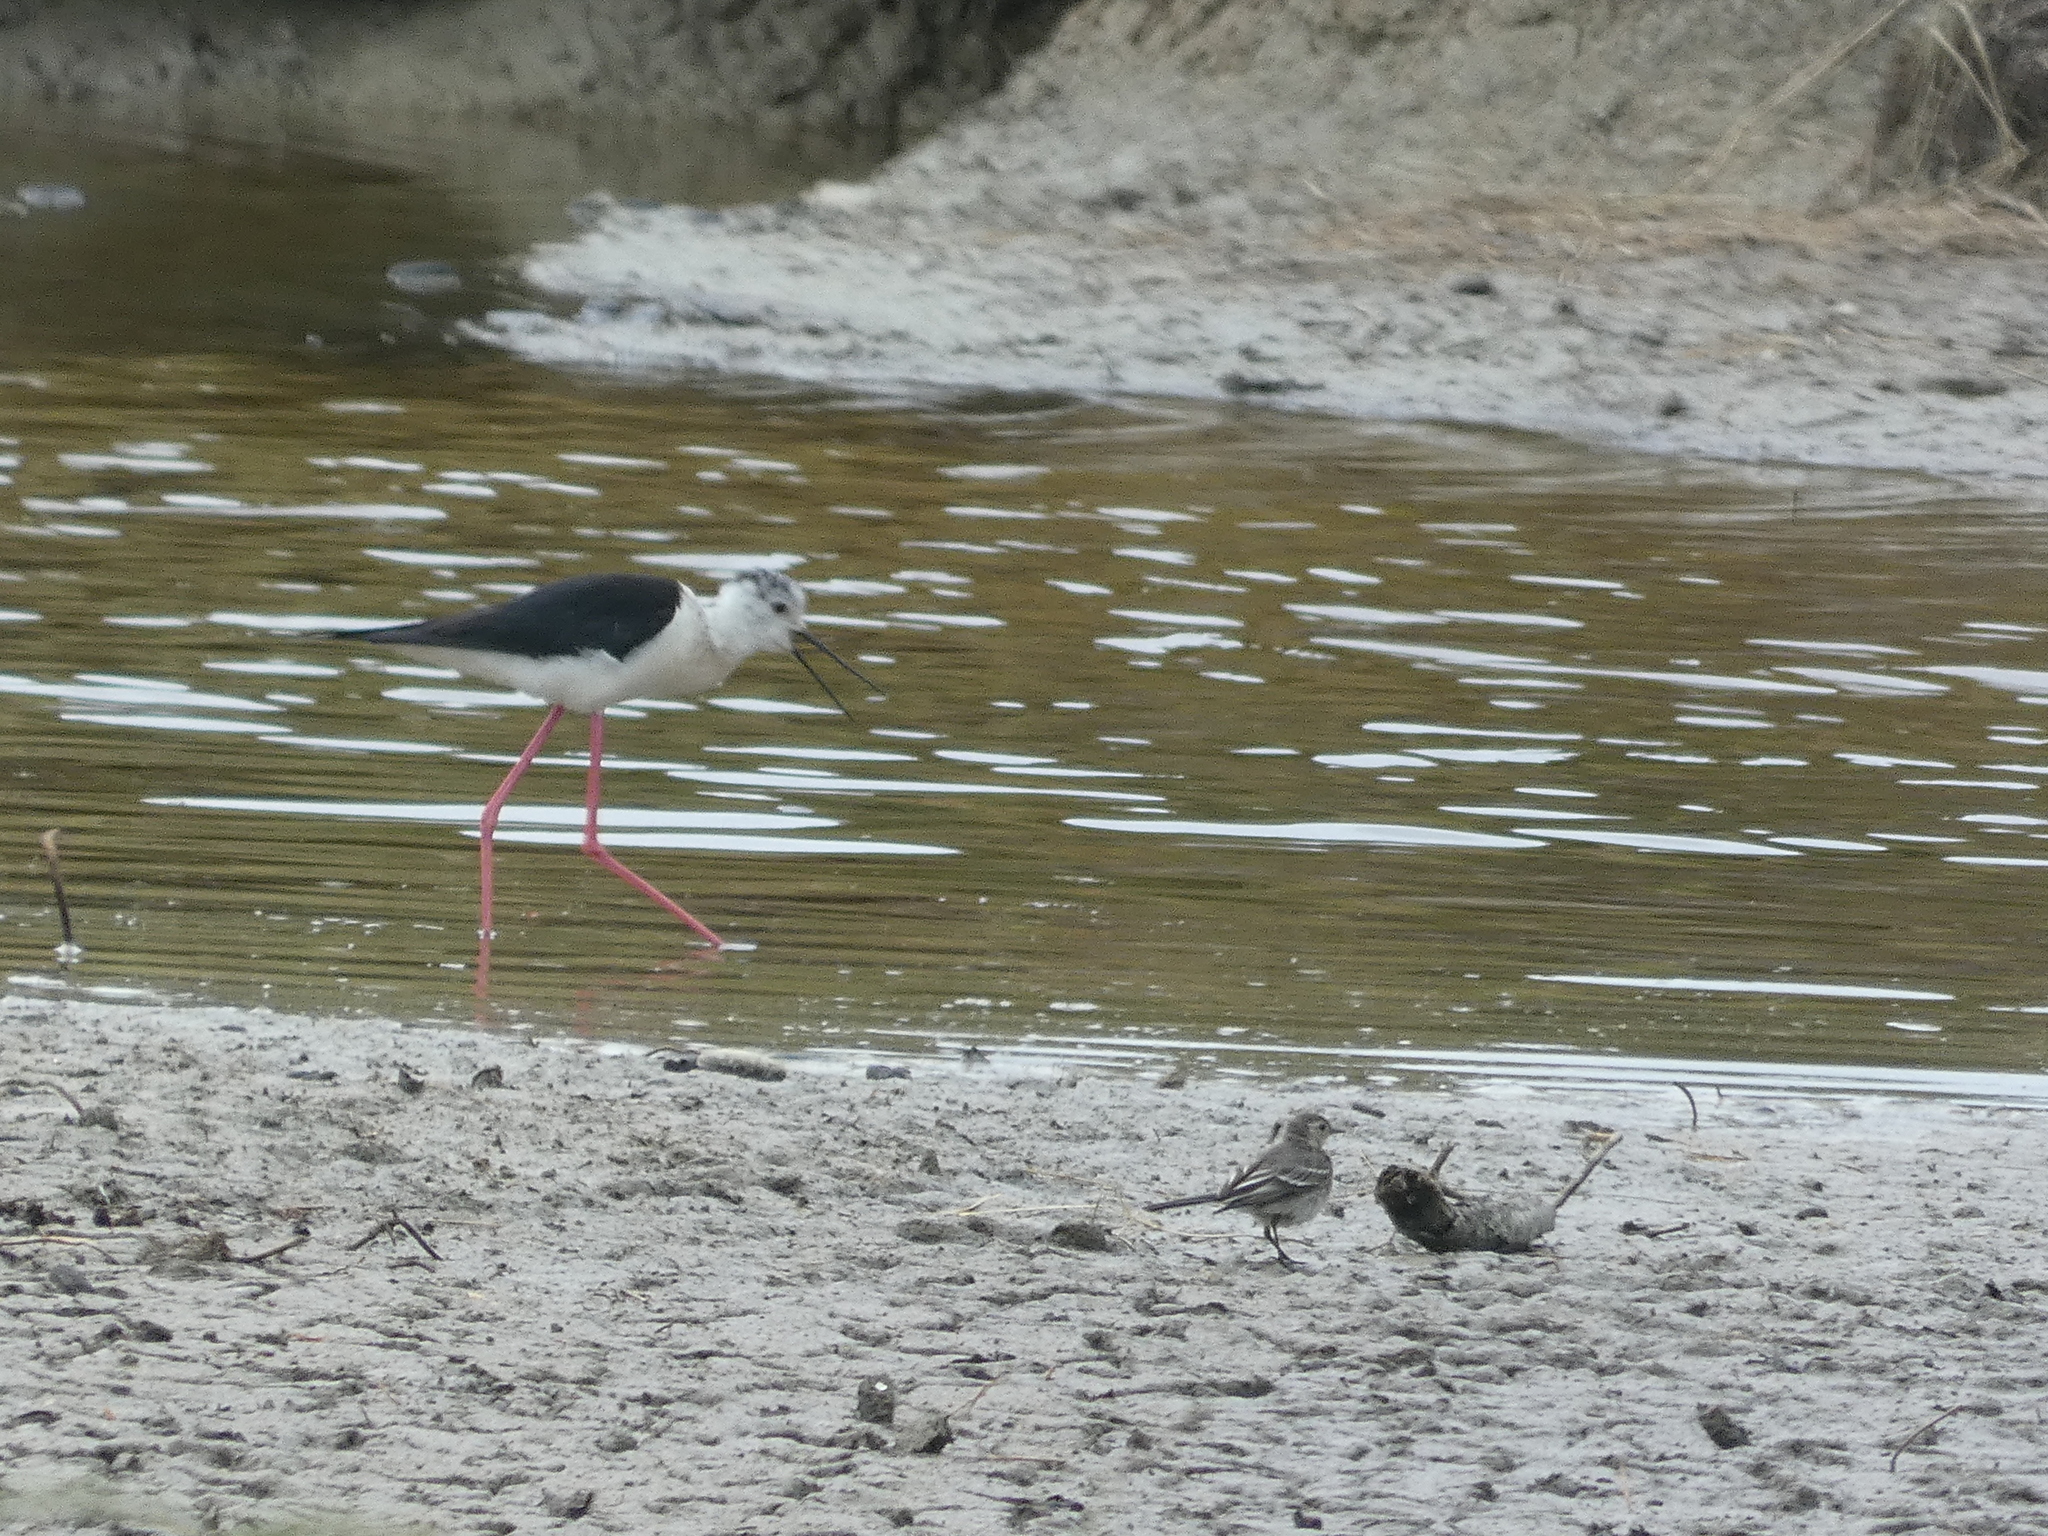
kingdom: Animalia
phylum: Chordata
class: Aves
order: Charadriiformes
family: Recurvirostridae
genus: Himantopus
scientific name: Himantopus himantopus
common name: Black-winged stilt
